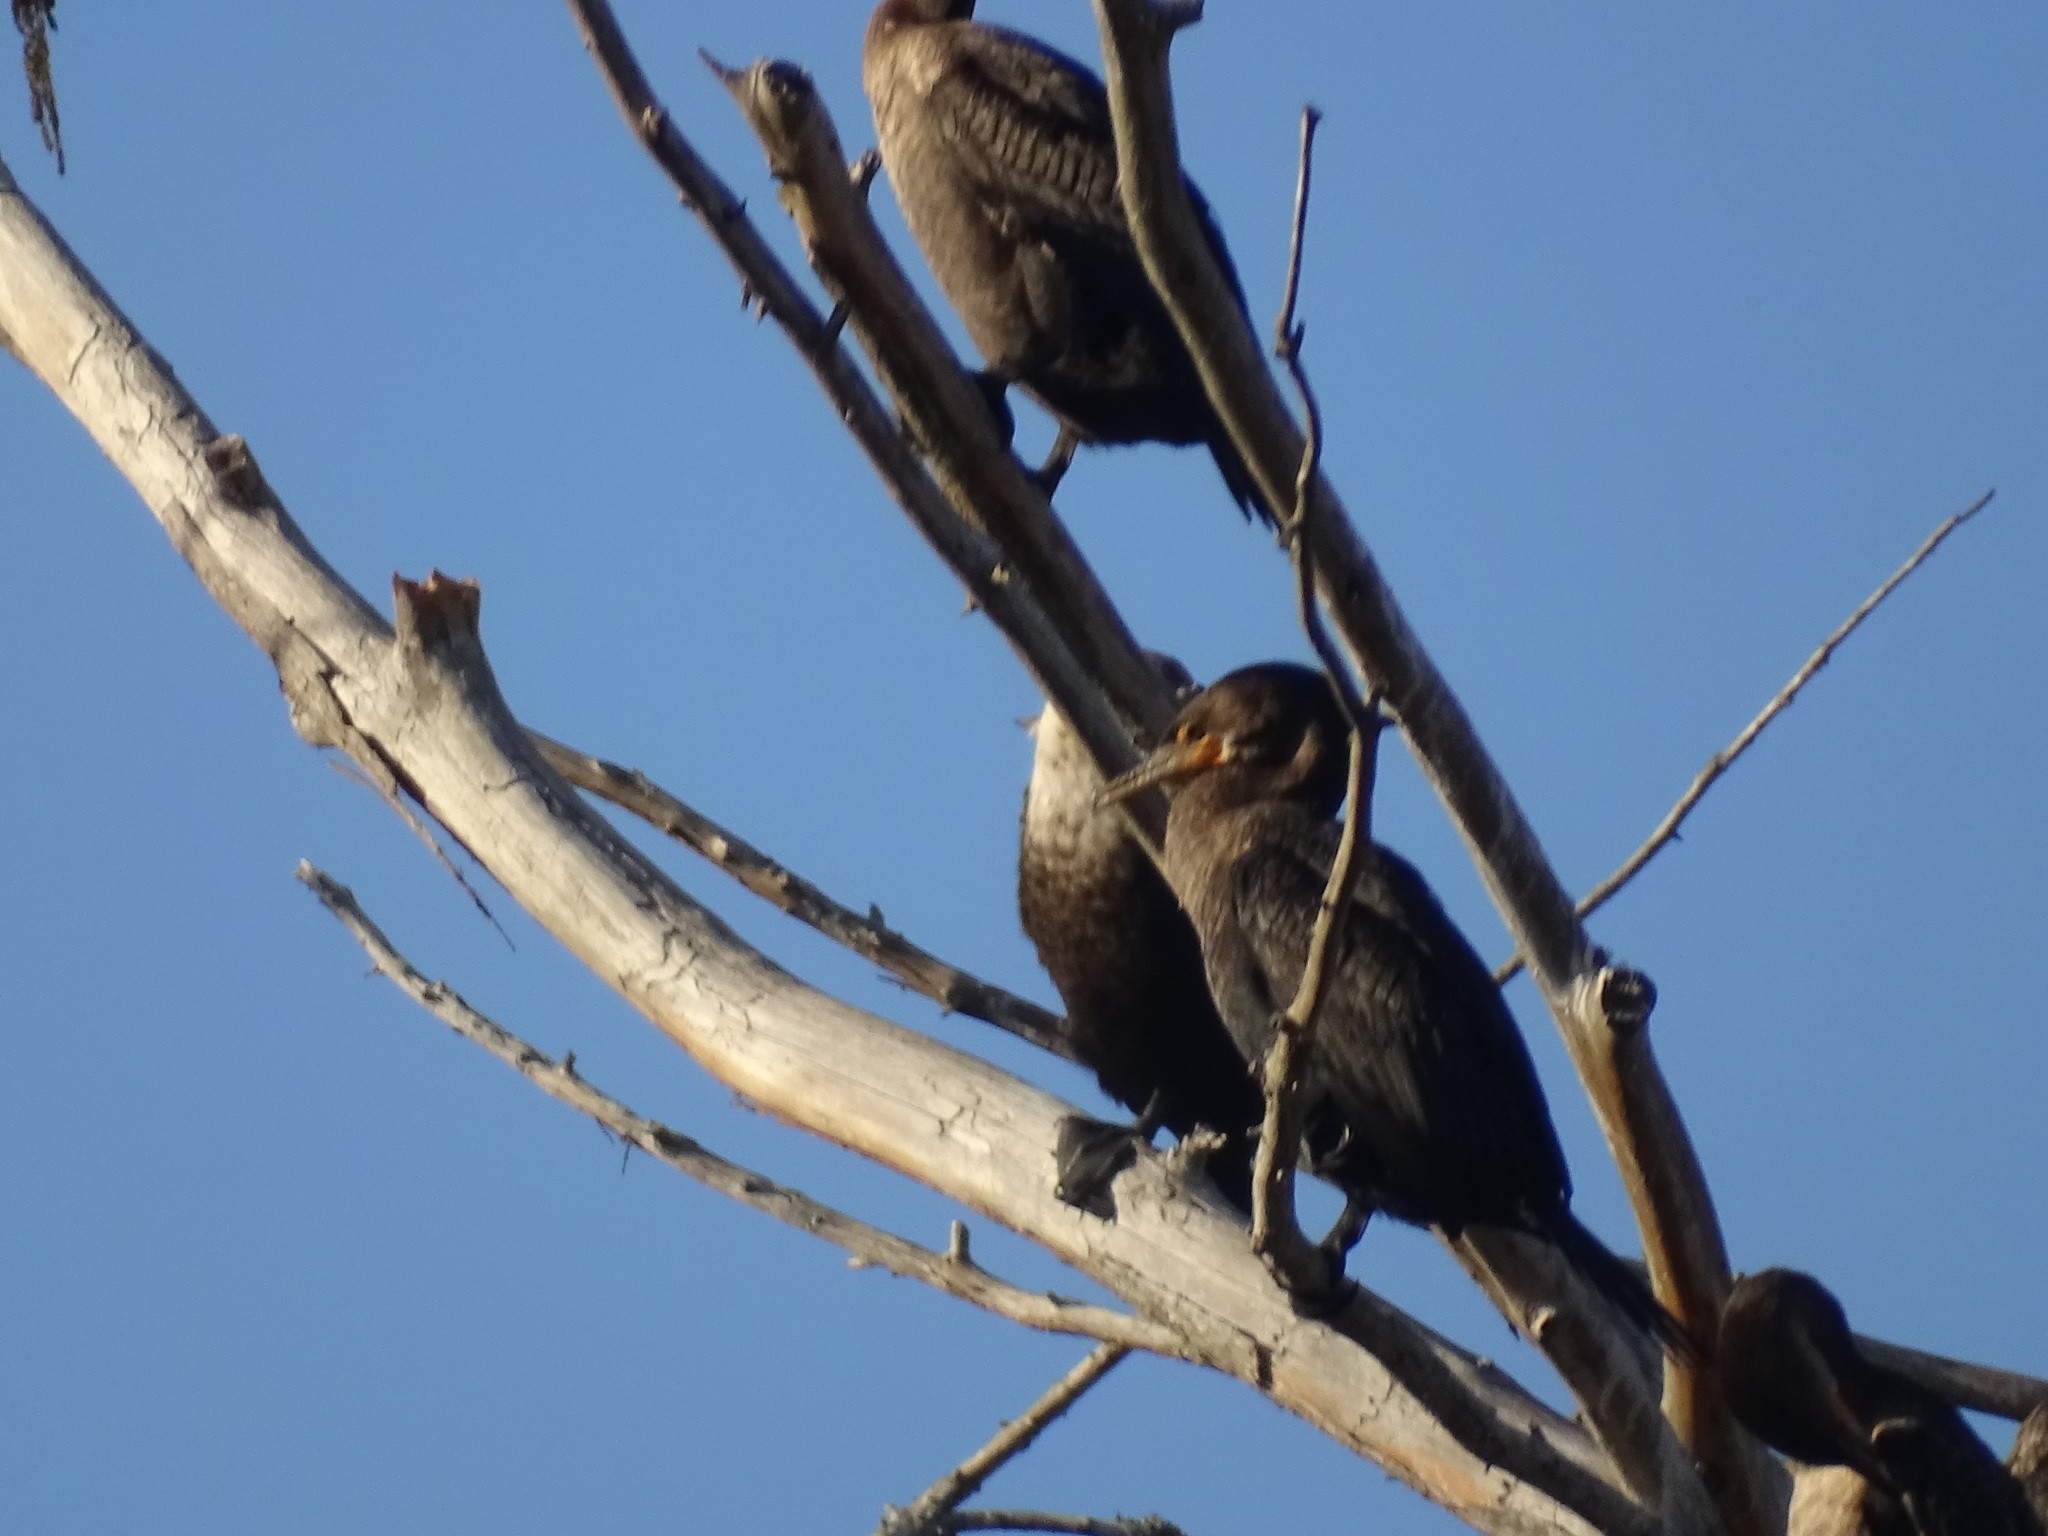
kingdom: Animalia
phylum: Chordata
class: Aves
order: Suliformes
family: Phalacrocoracidae
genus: Phalacrocorax
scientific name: Phalacrocorax auritus
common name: Double-crested cormorant
